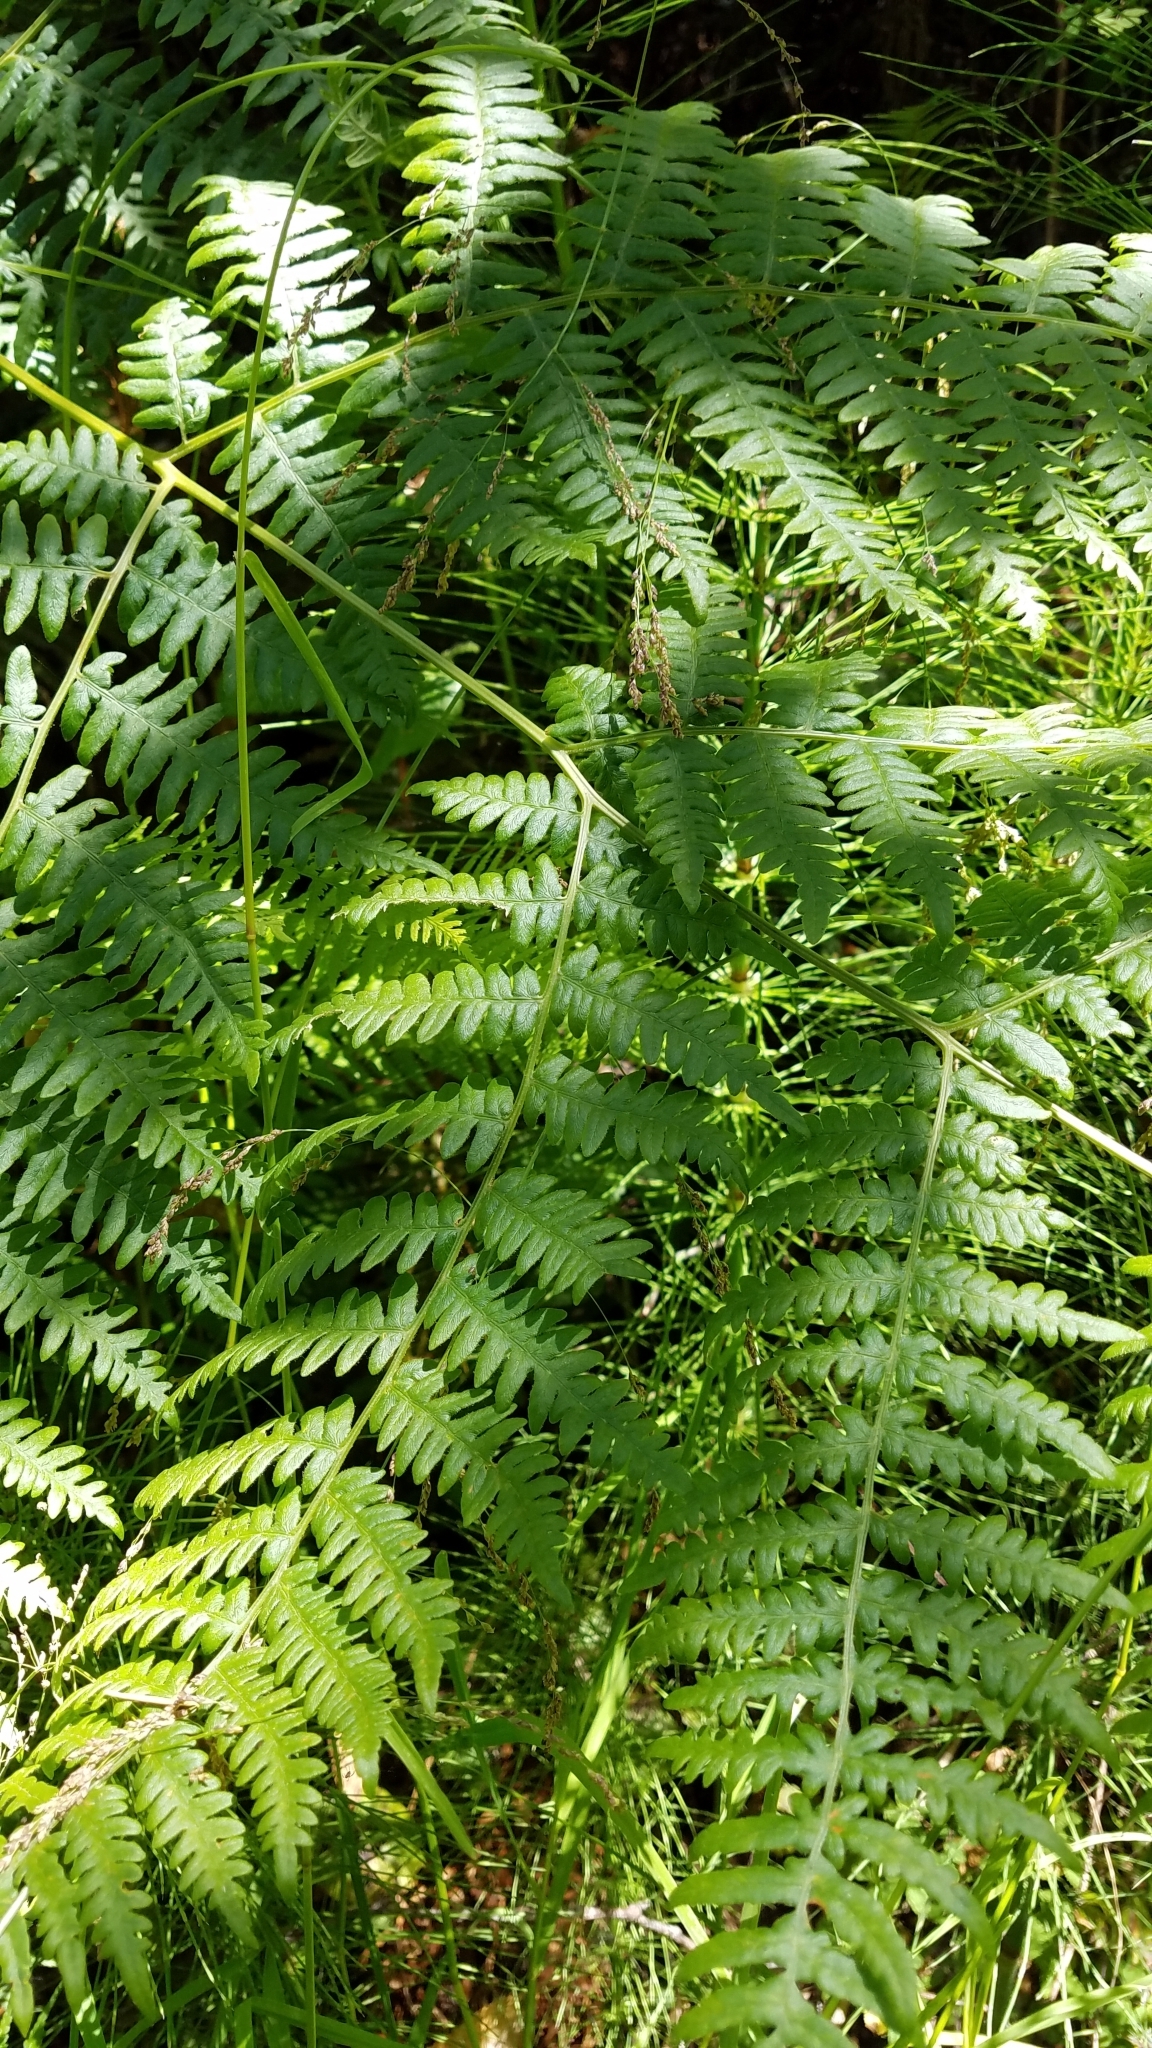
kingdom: Plantae
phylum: Tracheophyta
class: Polypodiopsida
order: Polypodiales
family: Dennstaedtiaceae
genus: Pteridium
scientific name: Pteridium aquilinum
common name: Bracken
